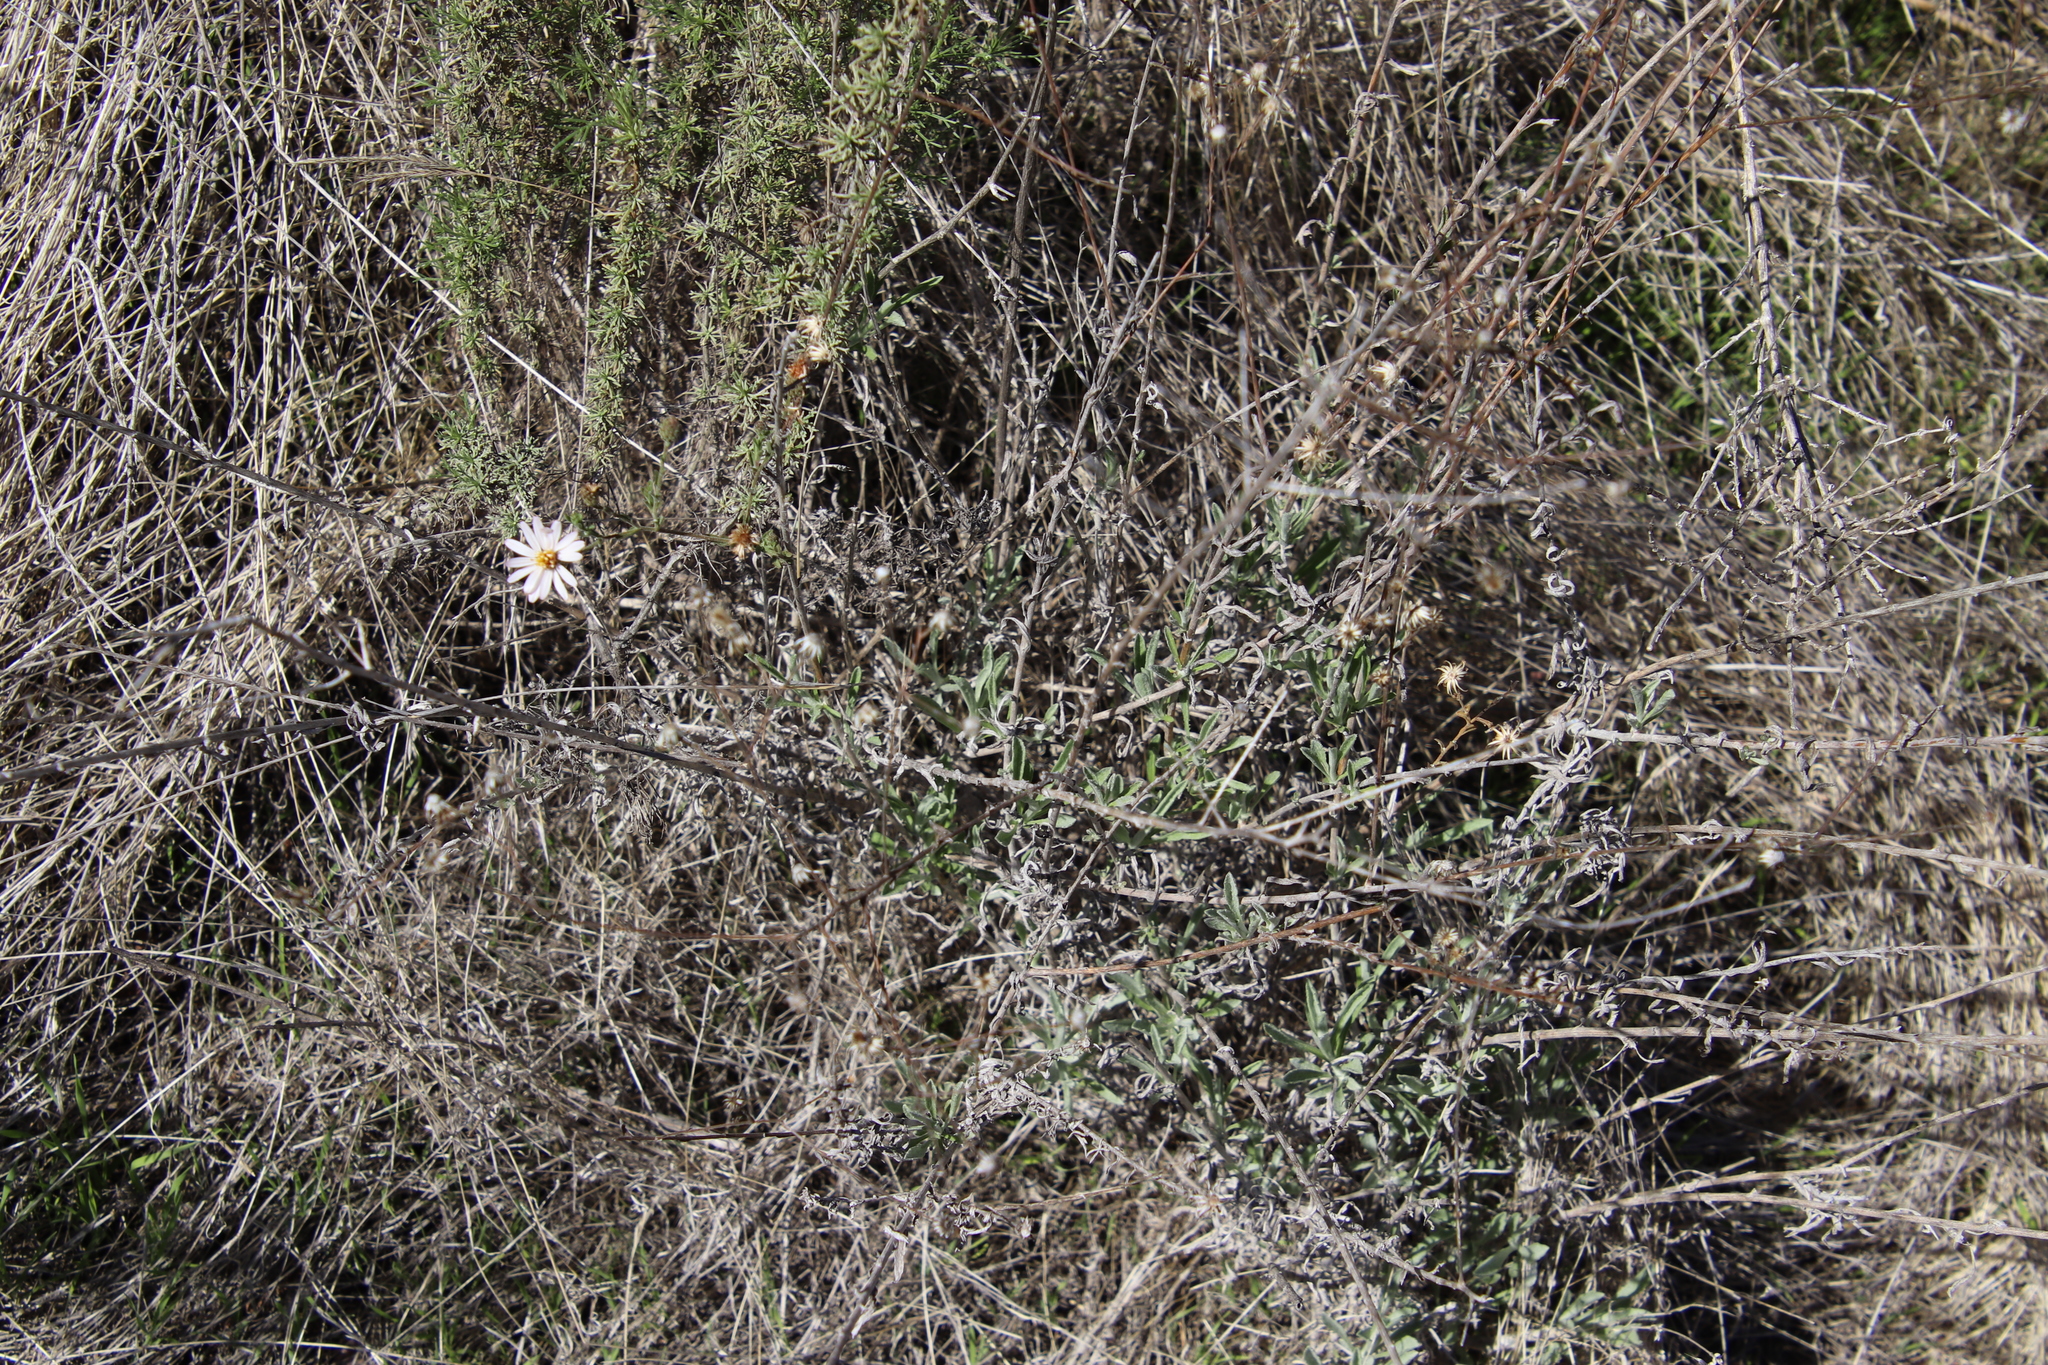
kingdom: Plantae
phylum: Tracheophyta
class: Magnoliopsida
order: Asterales
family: Asteraceae
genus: Corethrogyne
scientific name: Corethrogyne filaginifolia
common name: Sand-aster
